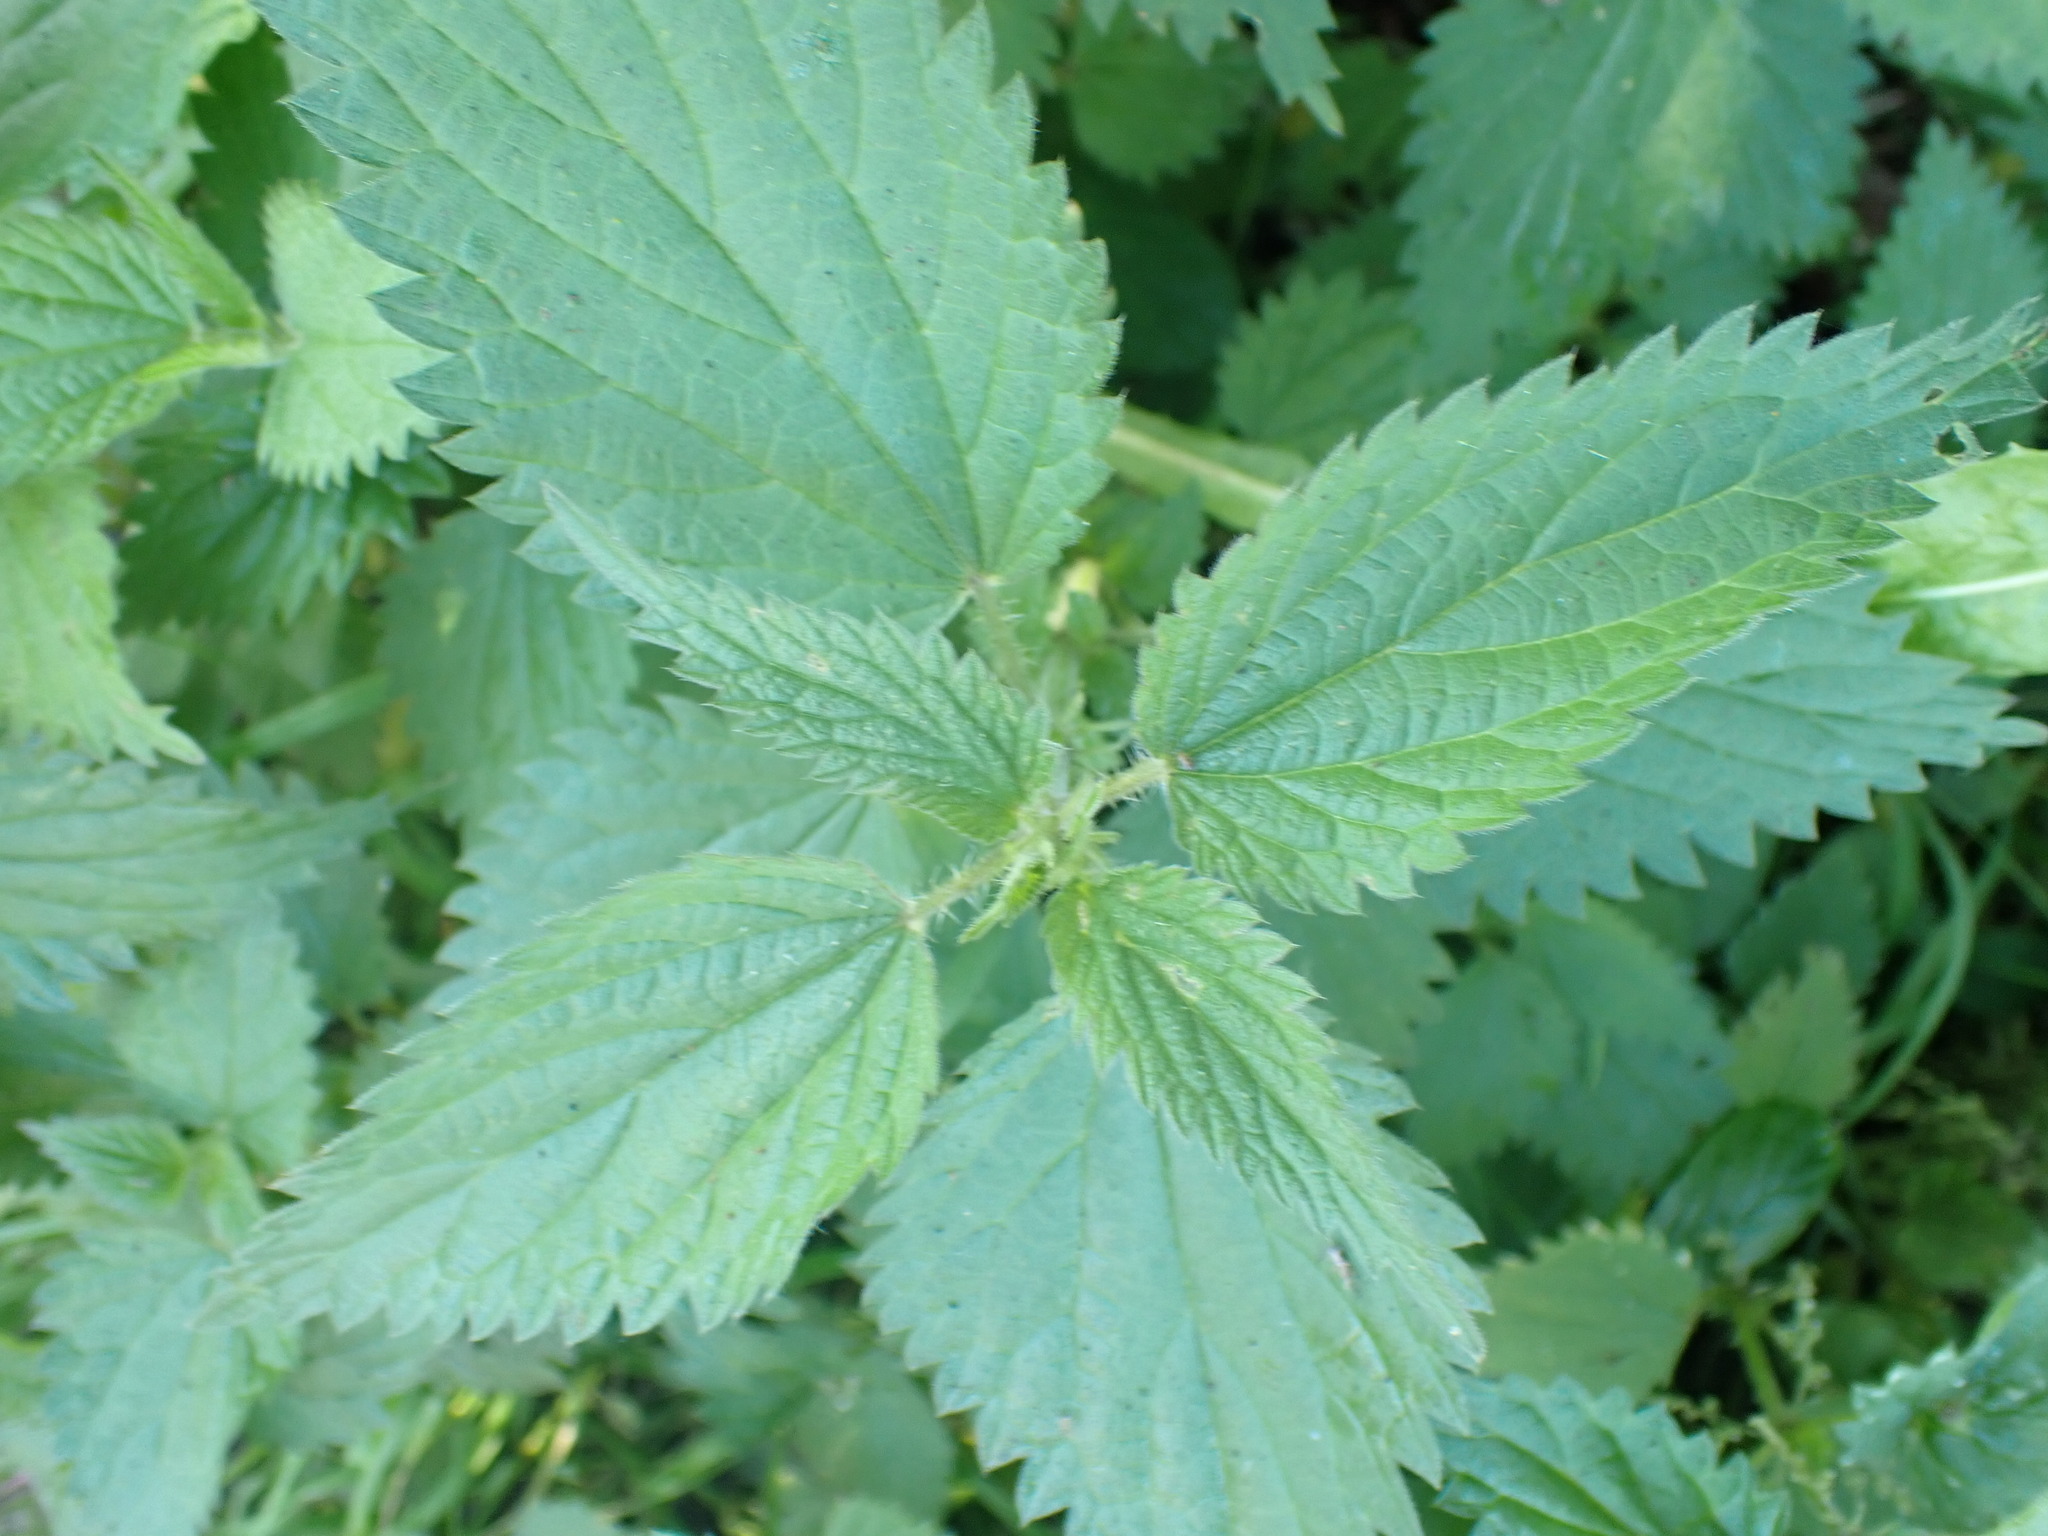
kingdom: Plantae
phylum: Tracheophyta
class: Magnoliopsida
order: Rosales
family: Urticaceae
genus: Urtica
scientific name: Urtica dioica
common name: Common nettle
